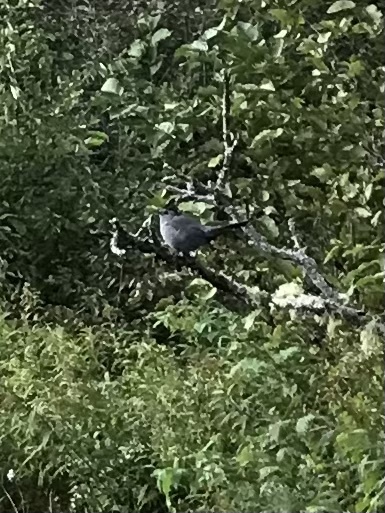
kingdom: Animalia
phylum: Chordata
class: Aves
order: Passeriformes
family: Mimidae
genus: Dumetella
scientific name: Dumetella carolinensis
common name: Gray catbird
